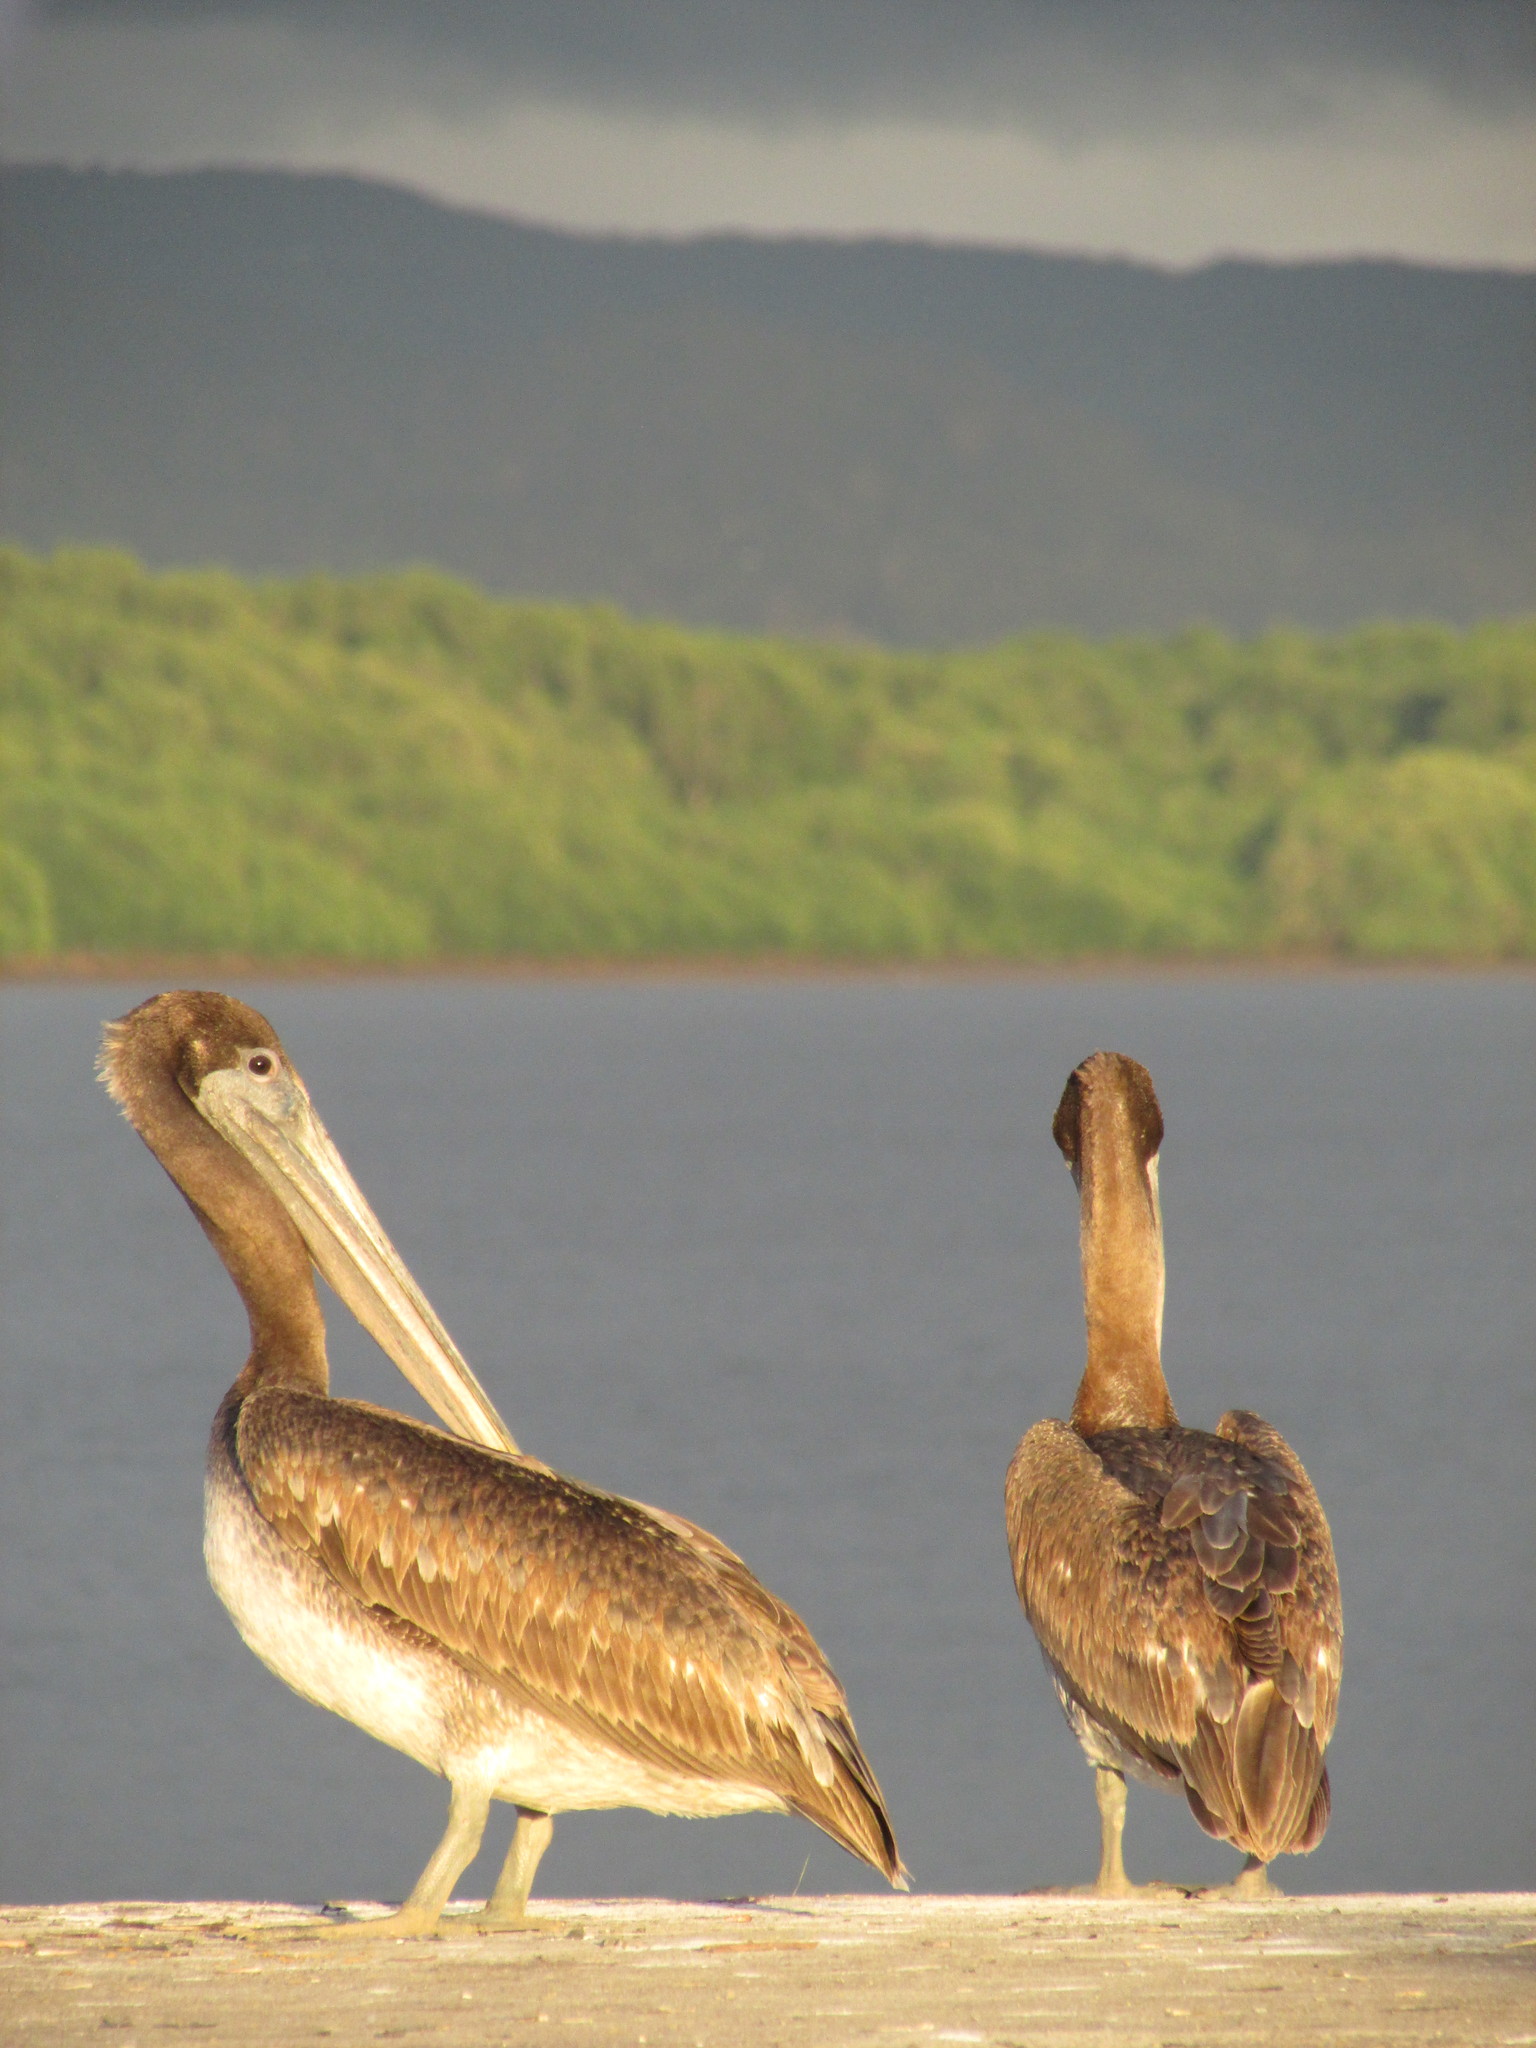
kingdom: Animalia
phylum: Chordata
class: Aves
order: Pelecaniformes
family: Pelecanidae
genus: Pelecanus
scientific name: Pelecanus occidentalis
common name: Brown pelican
